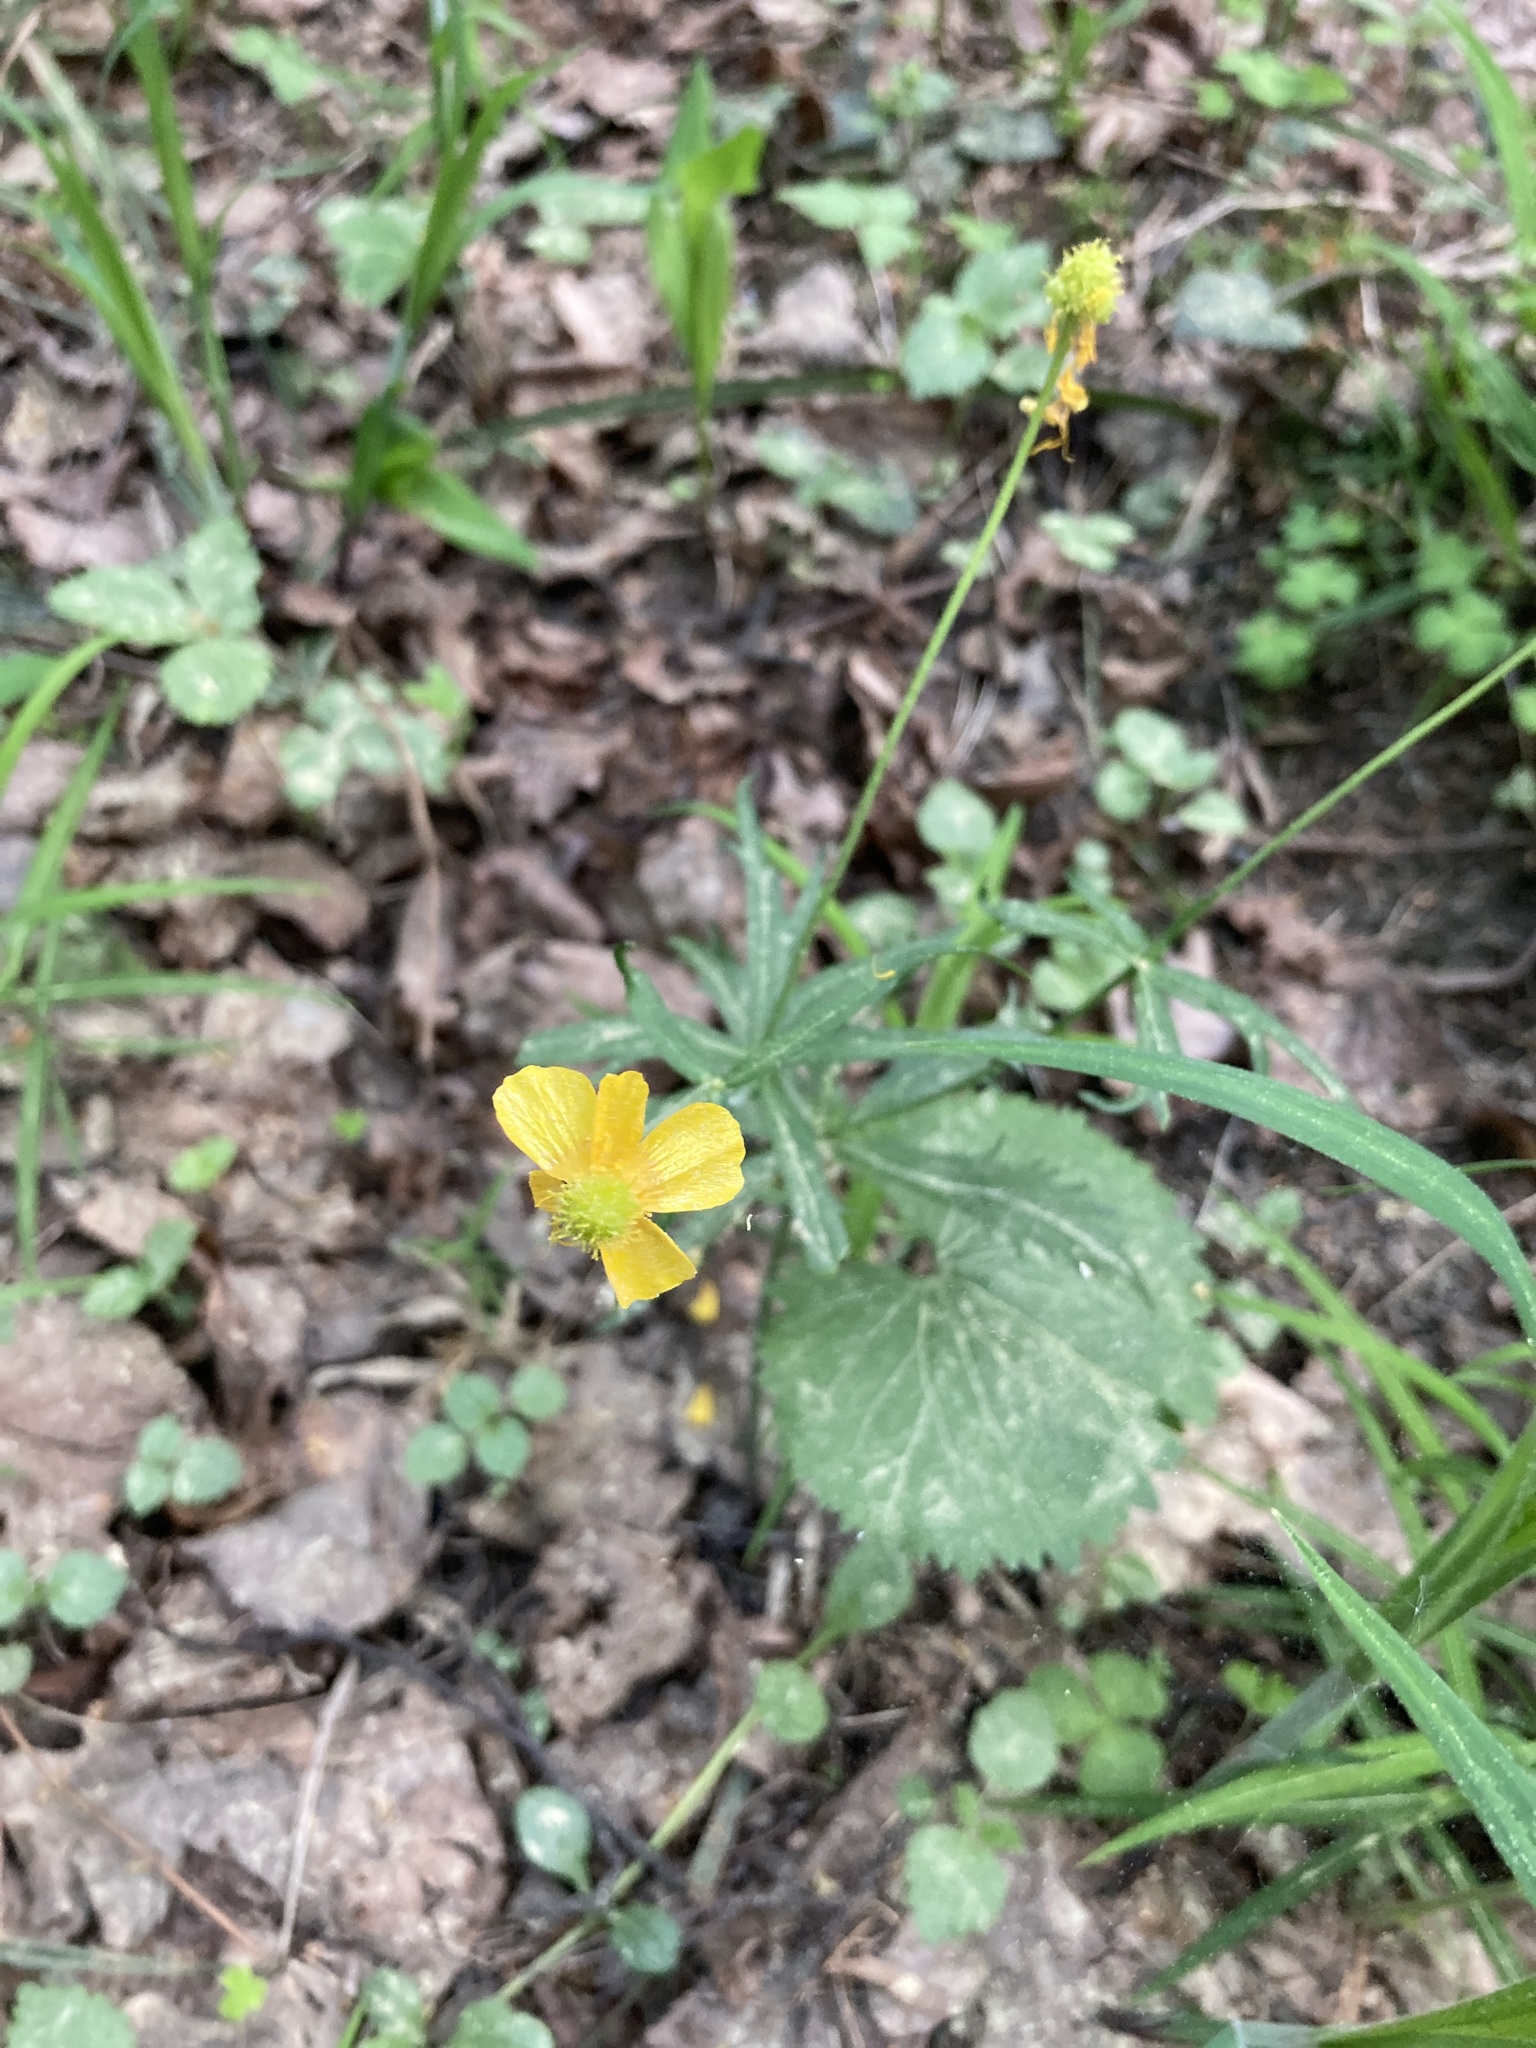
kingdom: Plantae
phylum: Tracheophyta
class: Magnoliopsida
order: Ranunculales
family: Ranunculaceae
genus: Ranunculus
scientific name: Ranunculus cassubicus
